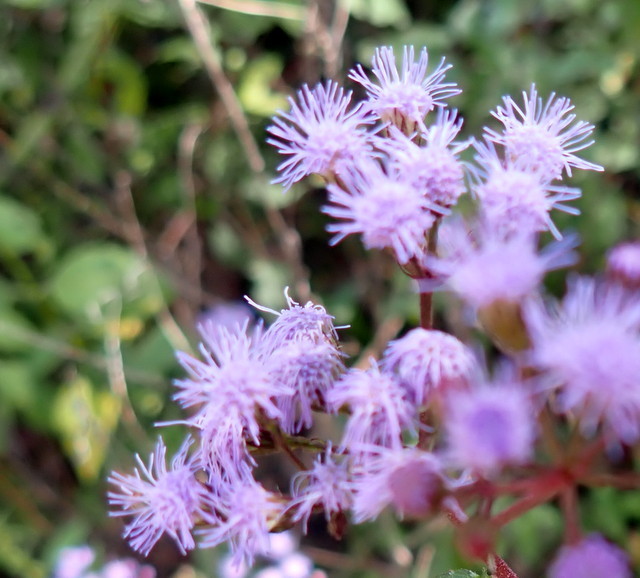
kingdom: Plantae
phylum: Tracheophyta
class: Magnoliopsida
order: Asterales
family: Asteraceae
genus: Conoclinium
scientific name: Conoclinium coelestinum
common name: Blue mistflower
